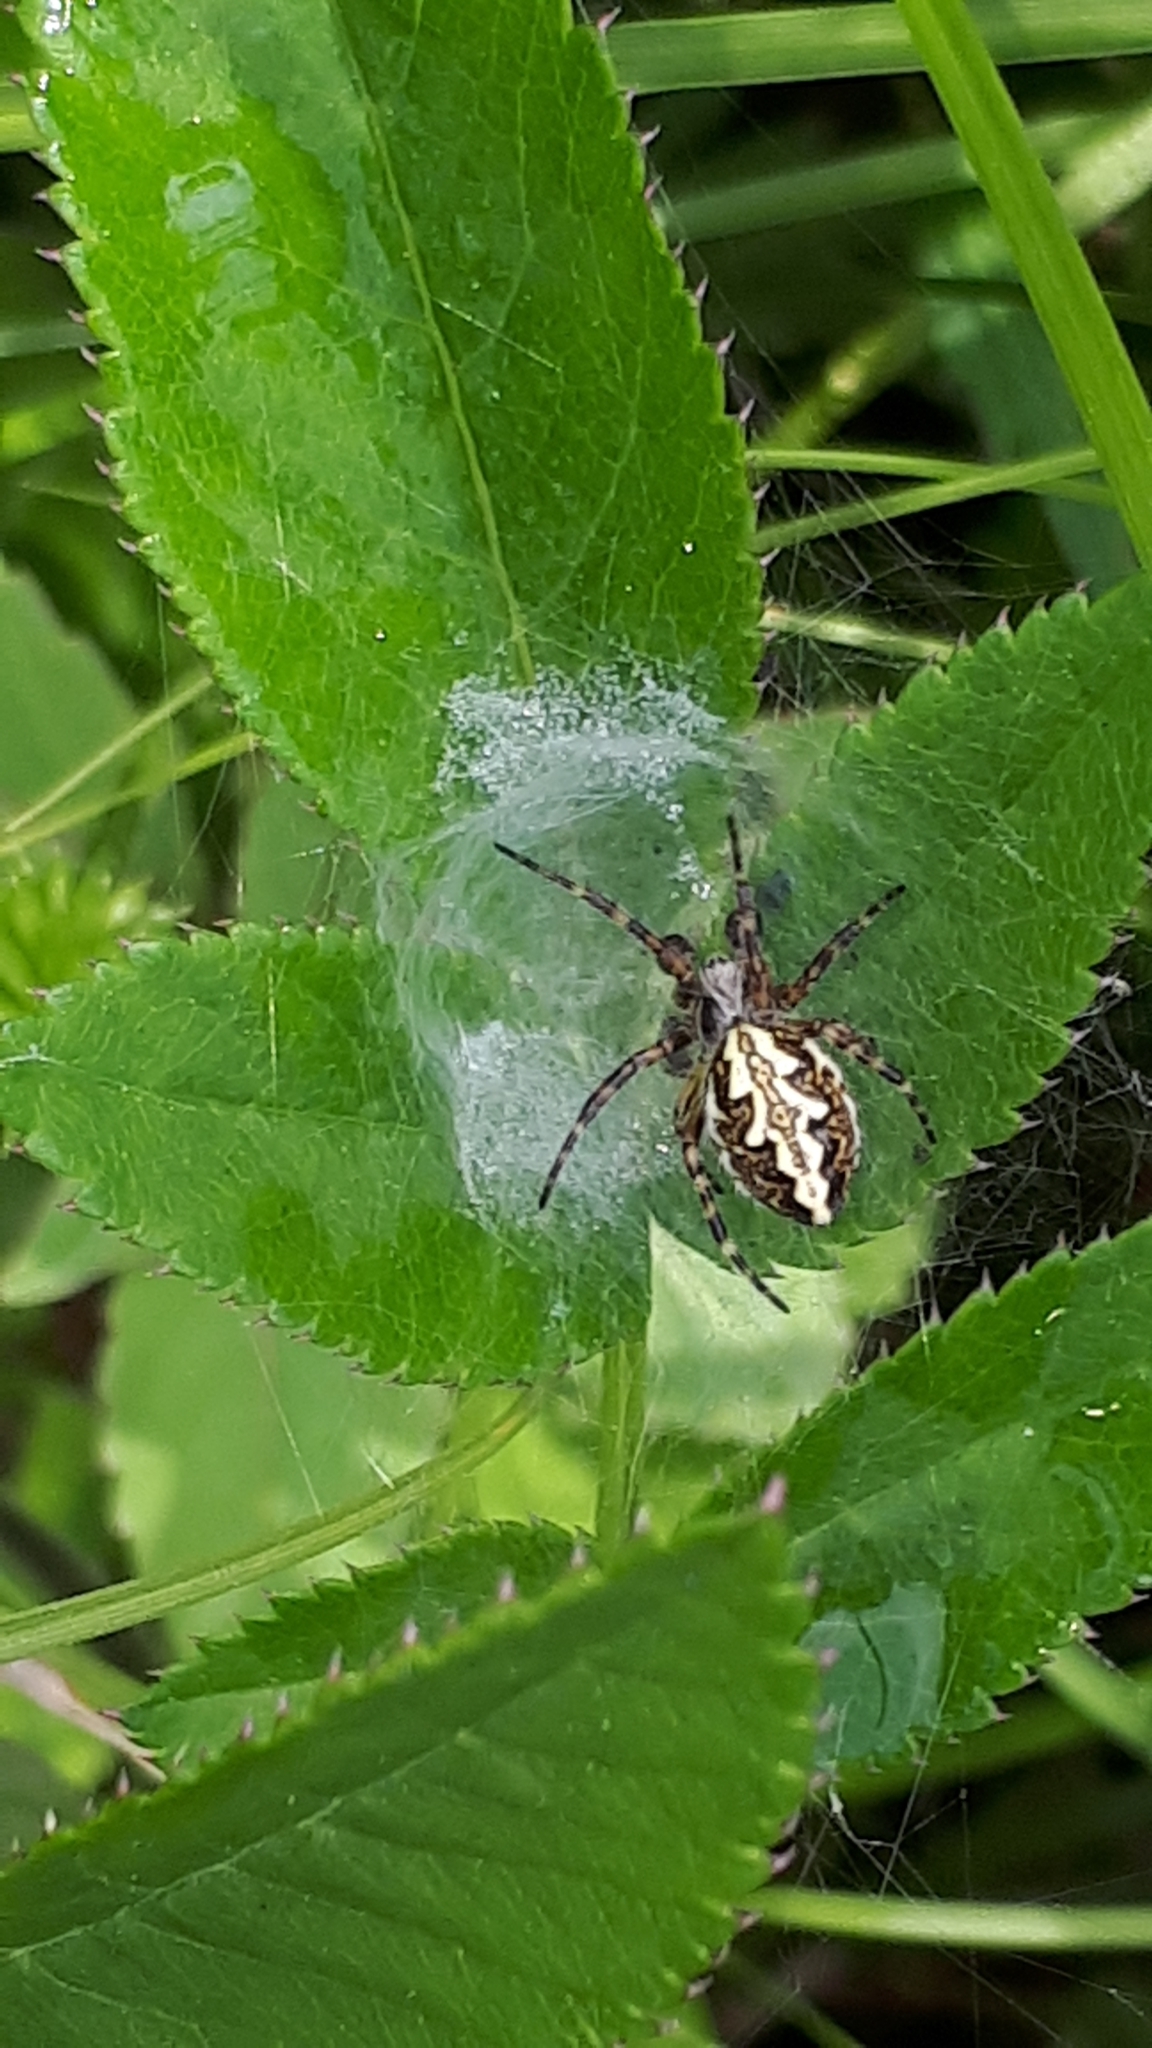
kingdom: Animalia
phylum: Arthropoda
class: Arachnida
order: Araneae
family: Araneidae
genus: Aculepeira
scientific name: Aculepeira ceropegia
